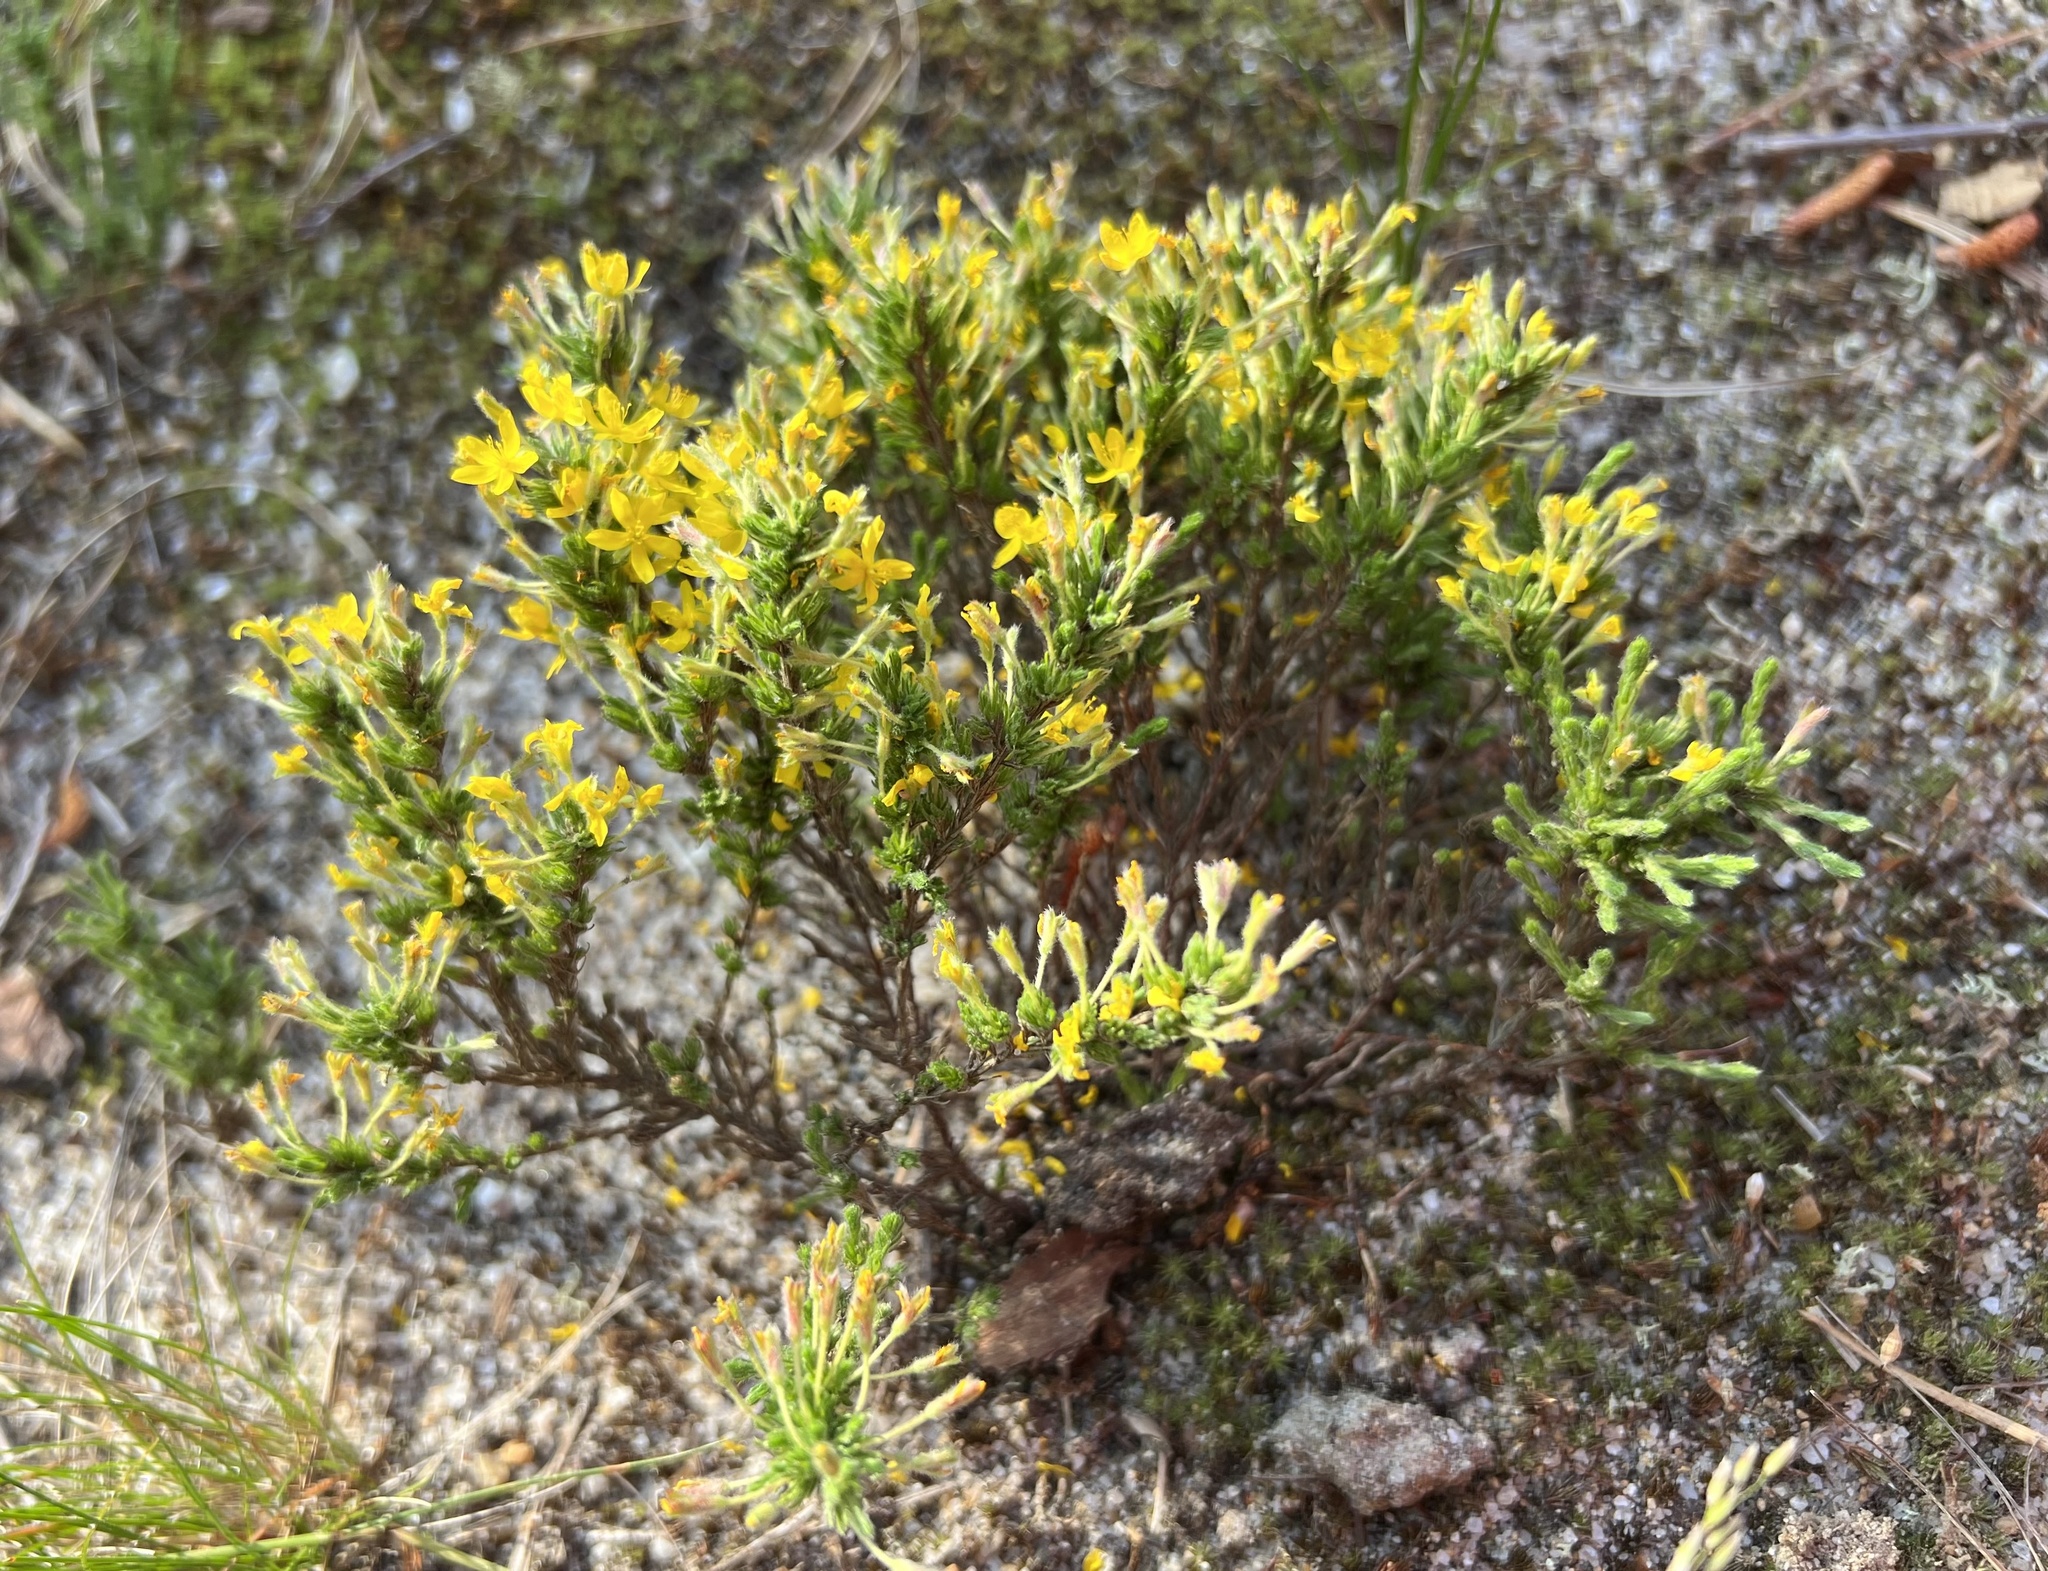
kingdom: Plantae
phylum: Tracheophyta
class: Magnoliopsida
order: Malvales
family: Cistaceae
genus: Hudsonia
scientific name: Hudsonia ericoides
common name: Golden-heather
